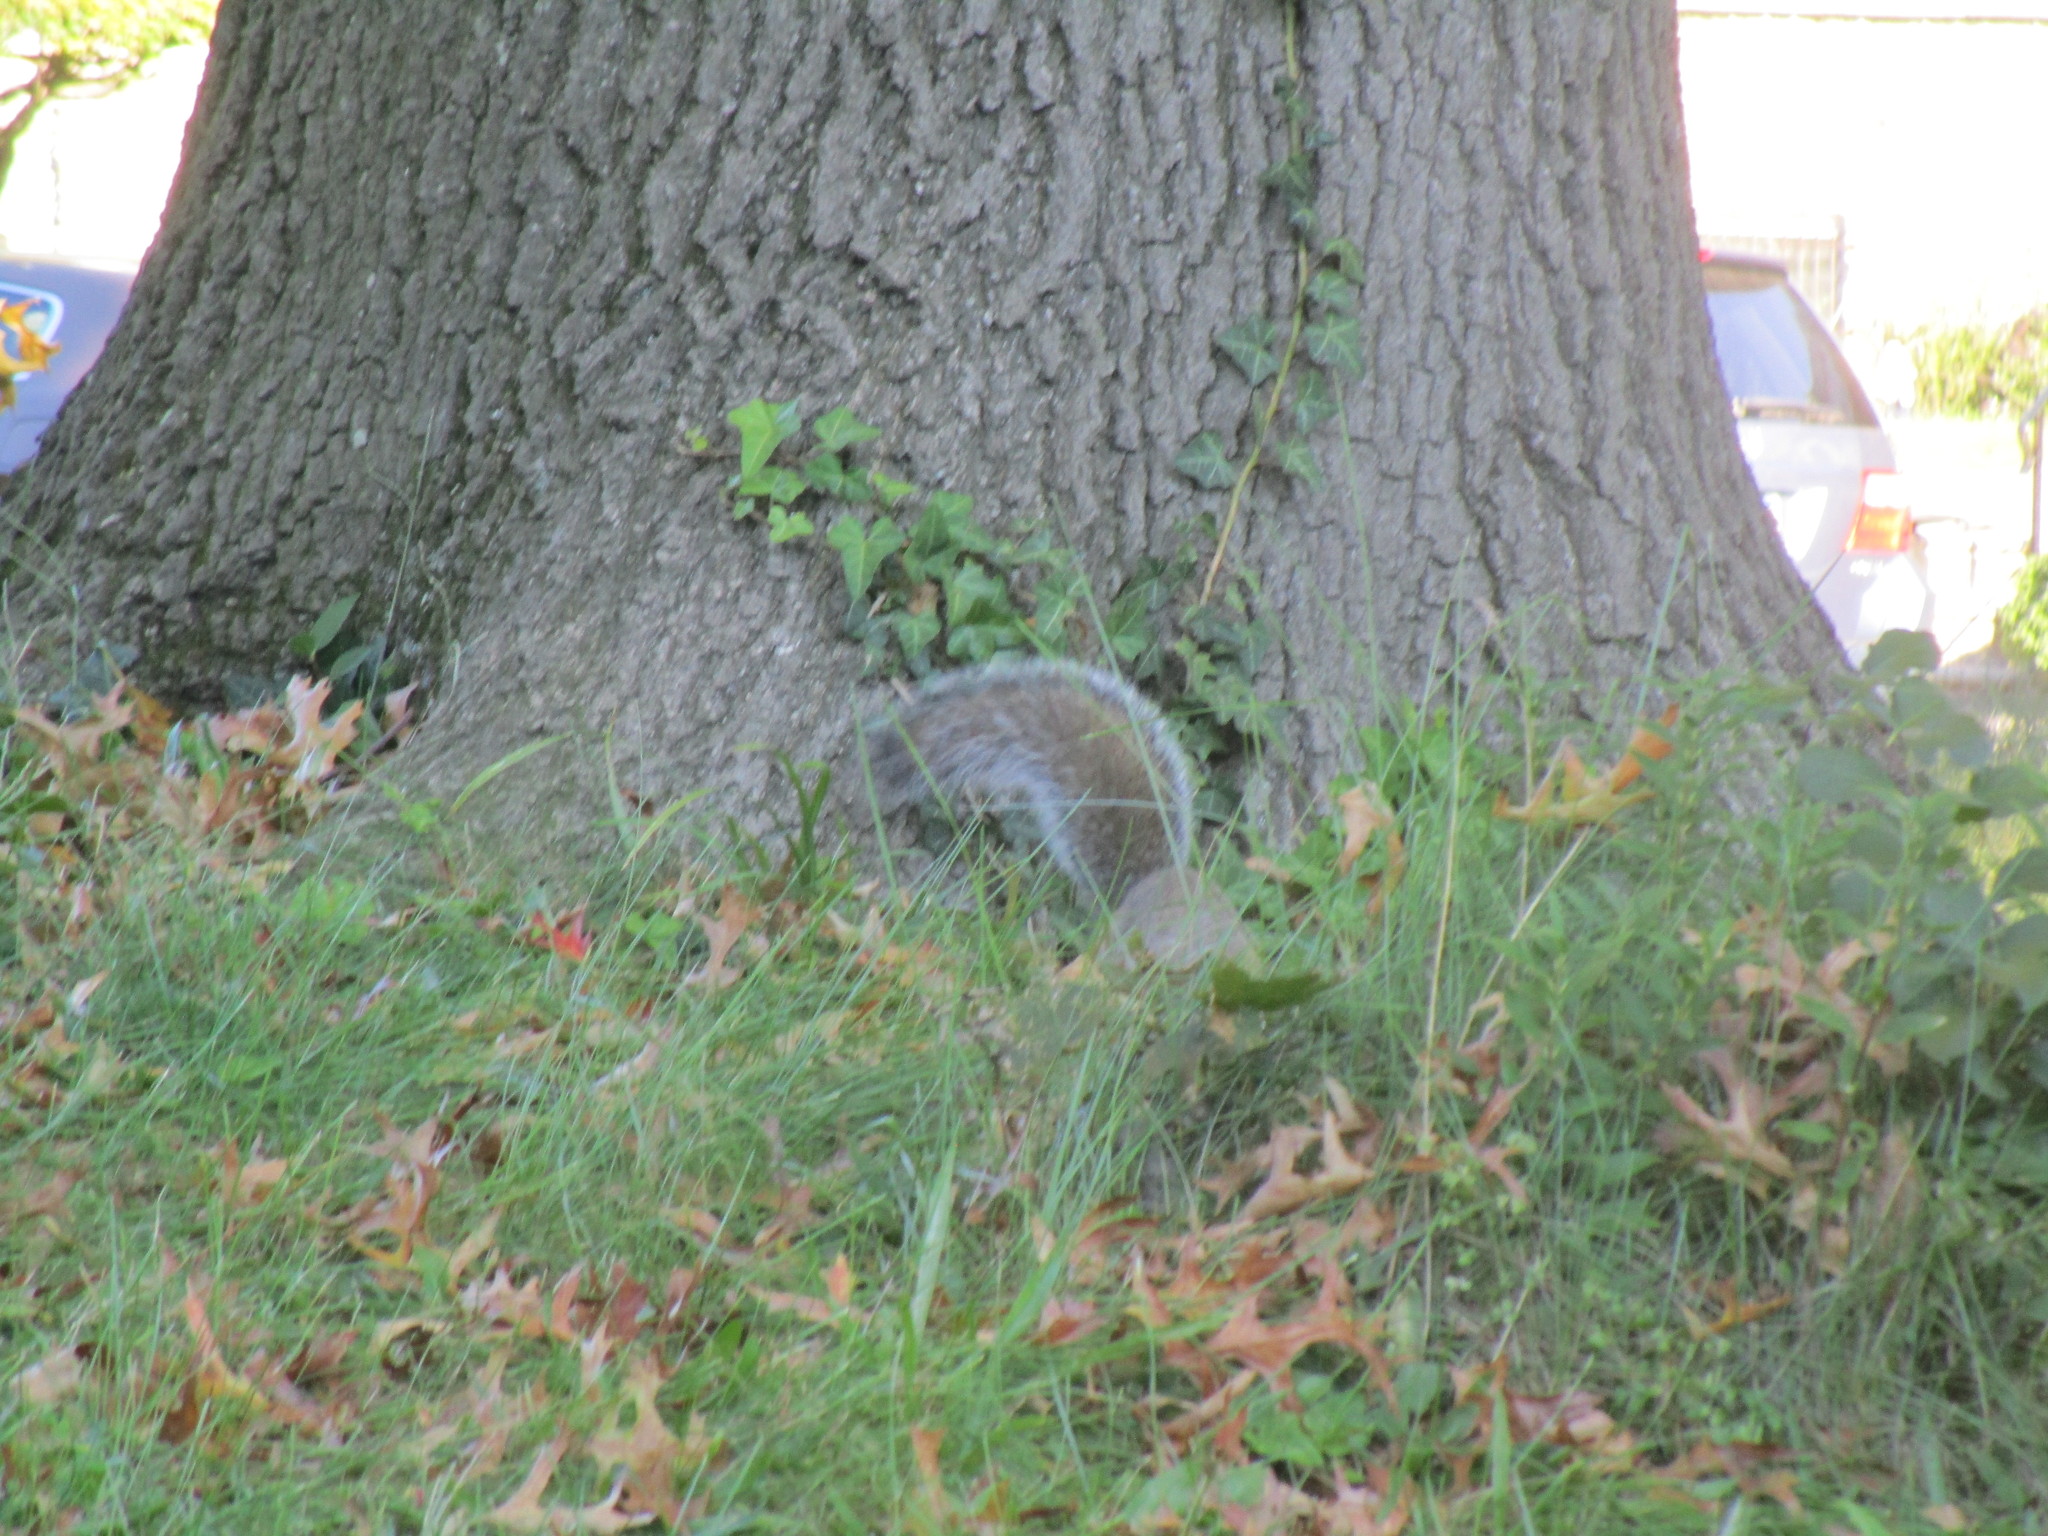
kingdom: Animalia
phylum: Chordata
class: Mammalia
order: Rodentia
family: Sciuridae
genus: Sciurus
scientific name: Sciurus carolinensis
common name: Eastern gray squirrel
